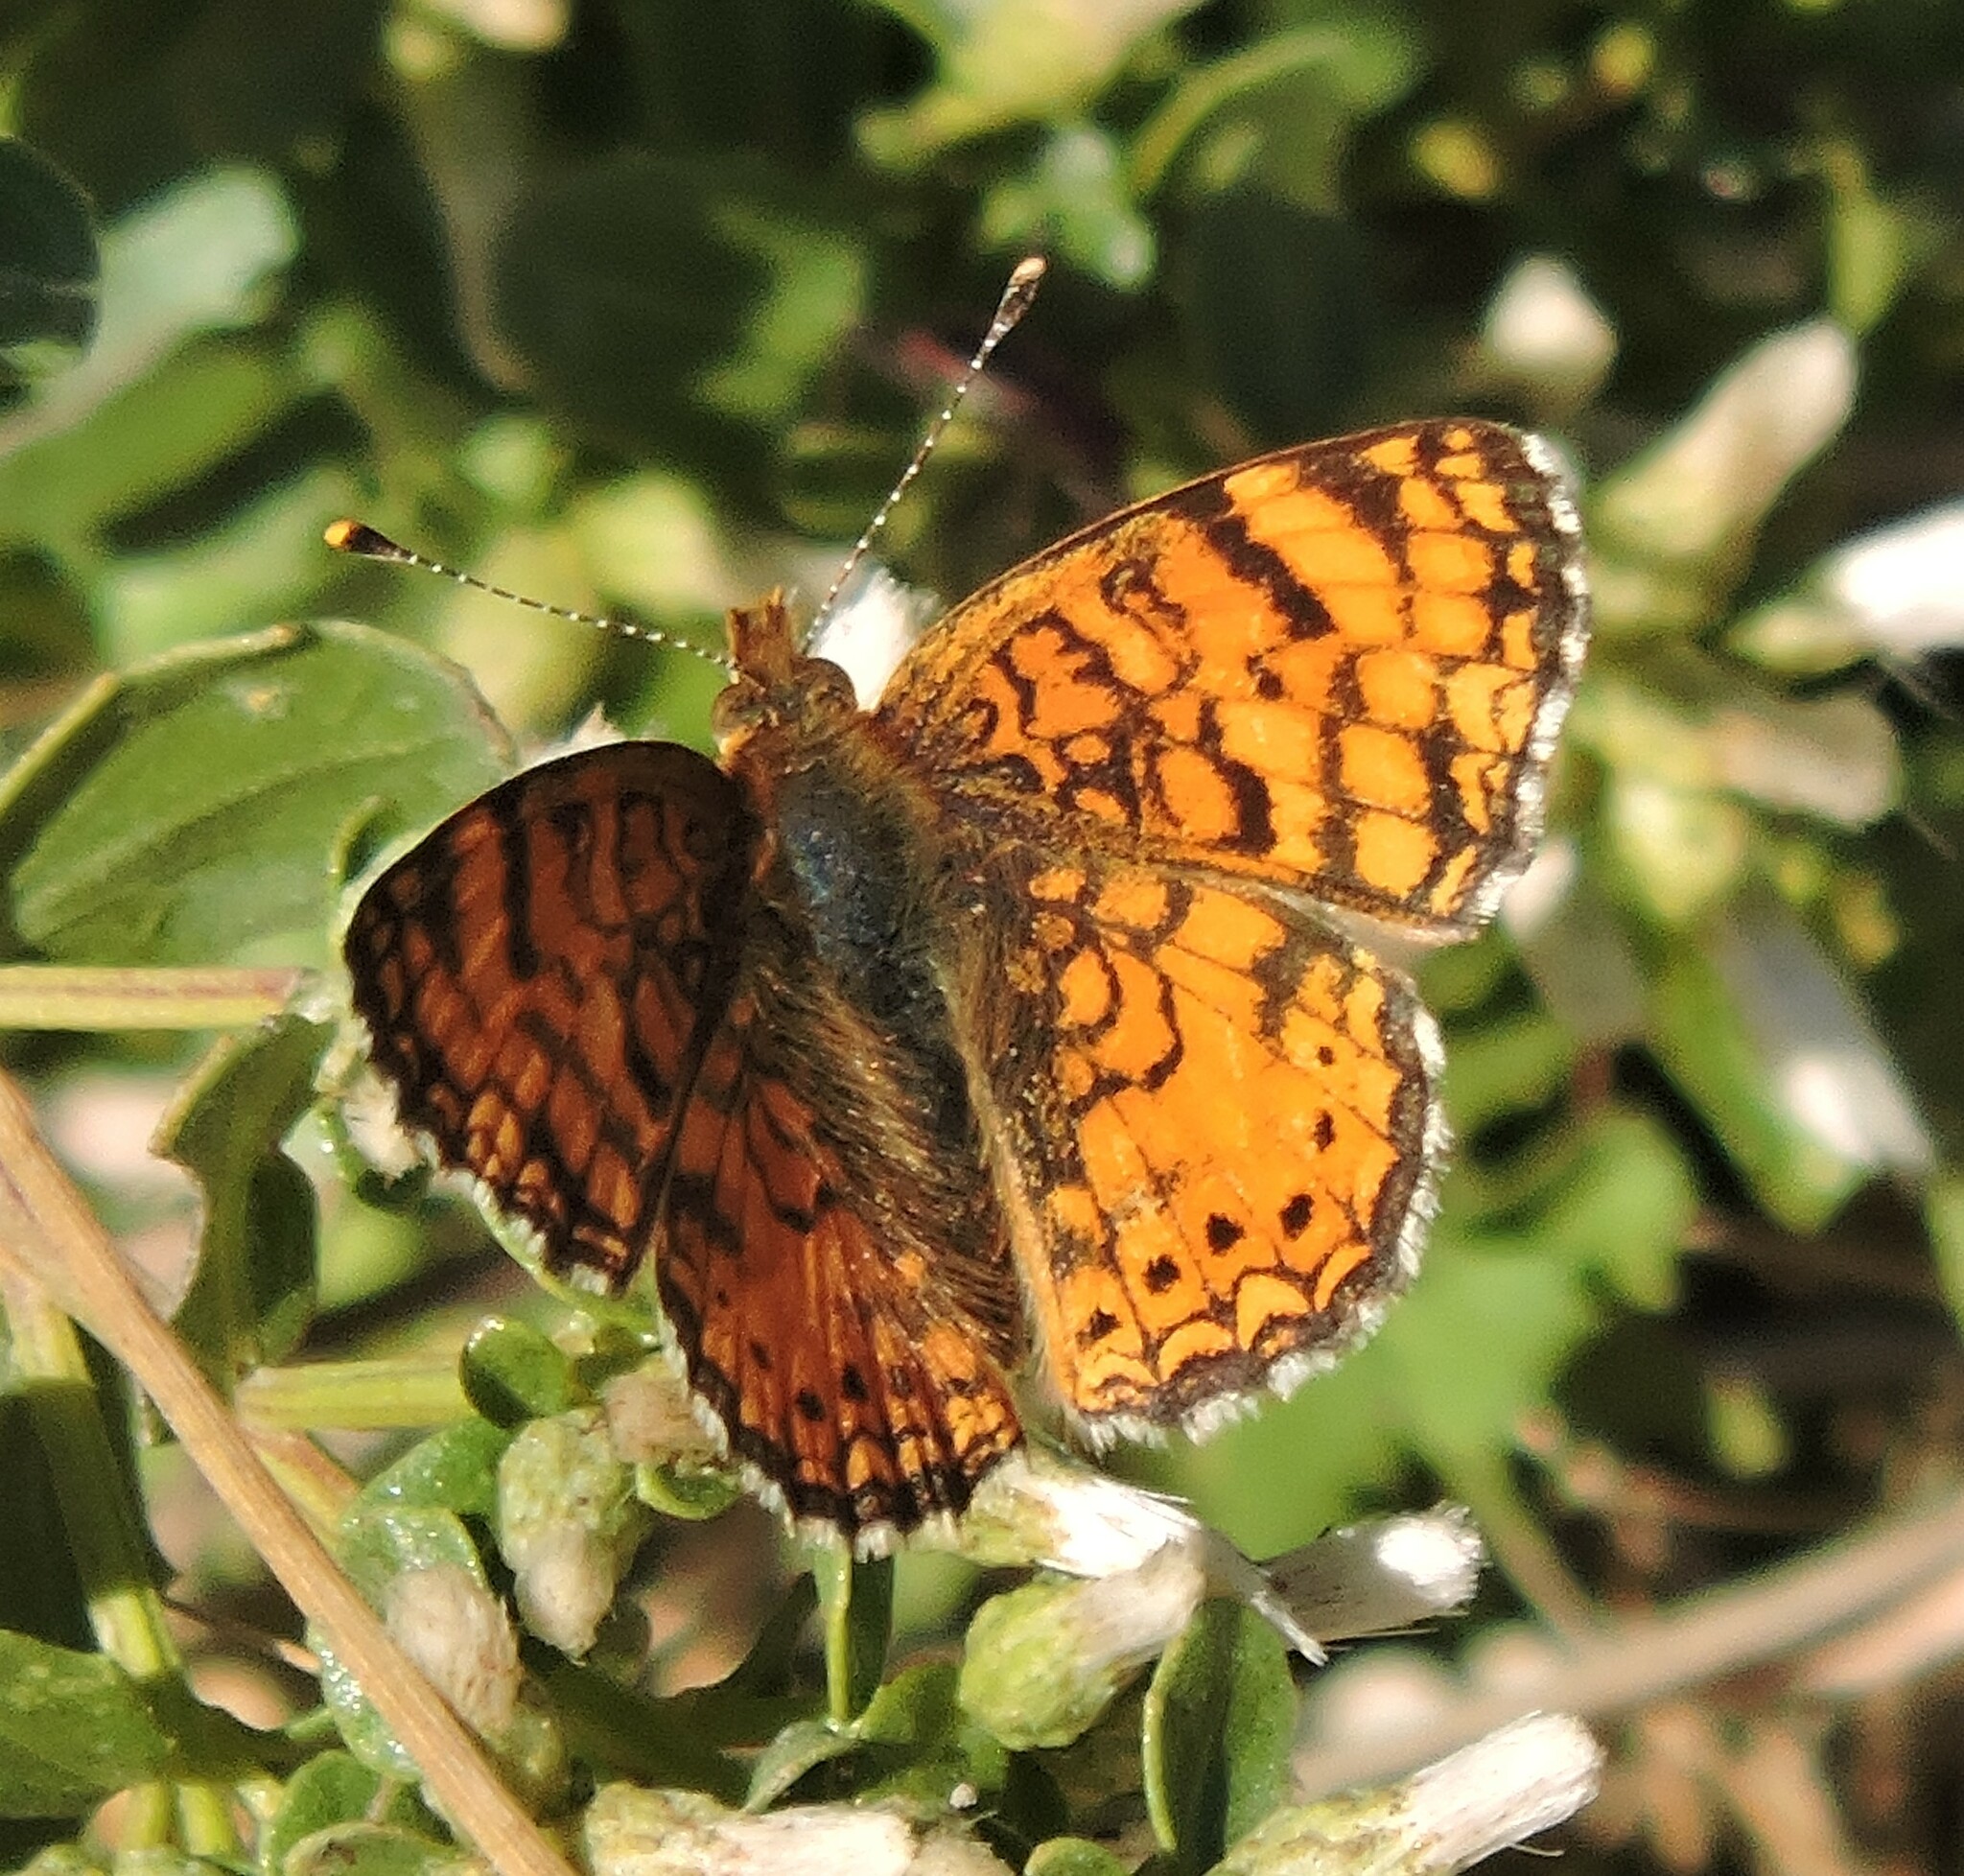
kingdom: Animalia
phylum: Arthropoda
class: Insecta
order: Lepidoptera
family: Nymphalidae
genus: Eresia
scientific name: Eresia aveyrona
